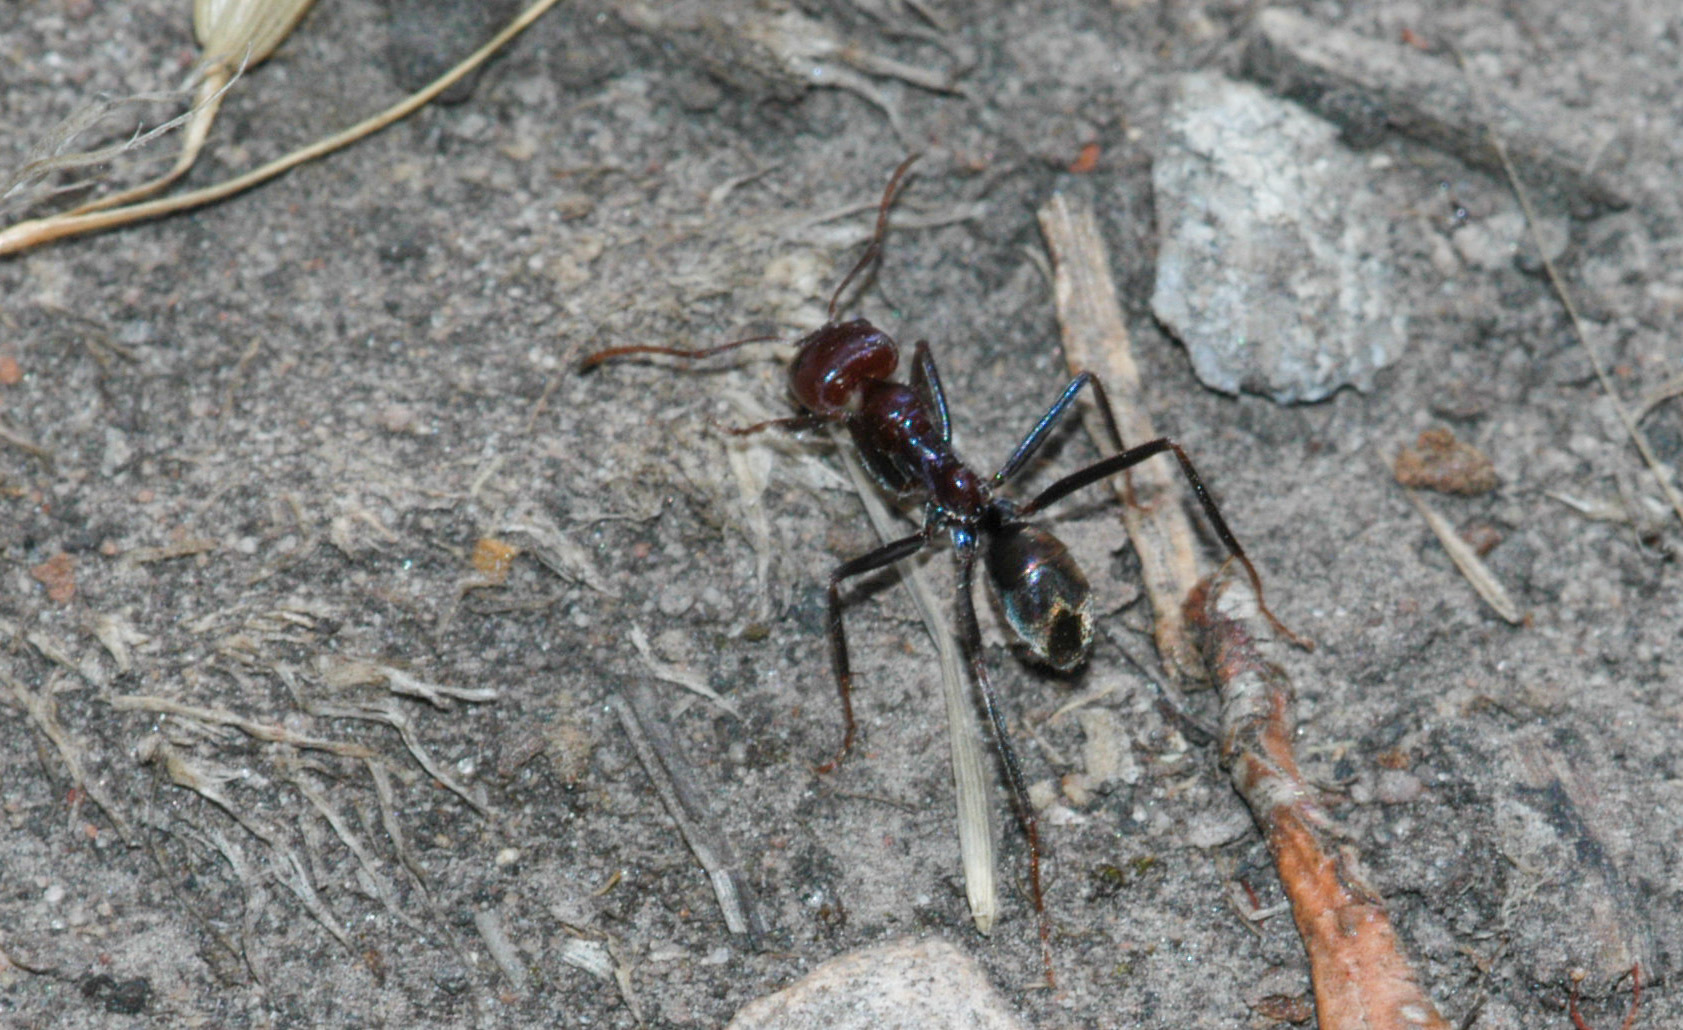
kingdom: Animalia
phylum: Arthropoda
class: Insecta
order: Hymenoptera
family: Formicidae
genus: Iridomyrmex
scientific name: Iridomyrmex purpureus
